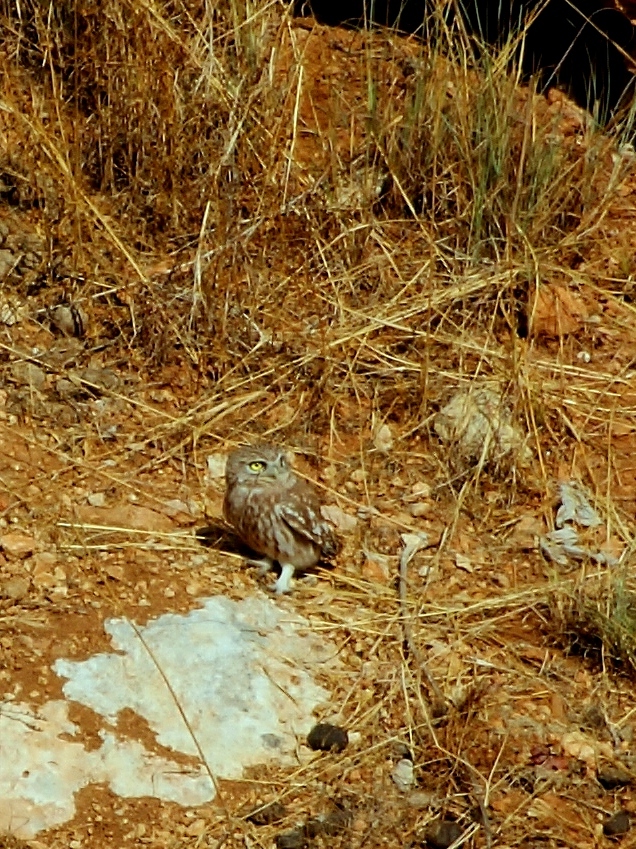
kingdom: Animalia
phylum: Chordata
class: Aves
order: Strigiformes
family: Strigidae
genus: Athene
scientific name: Athene noctua
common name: Little owl
